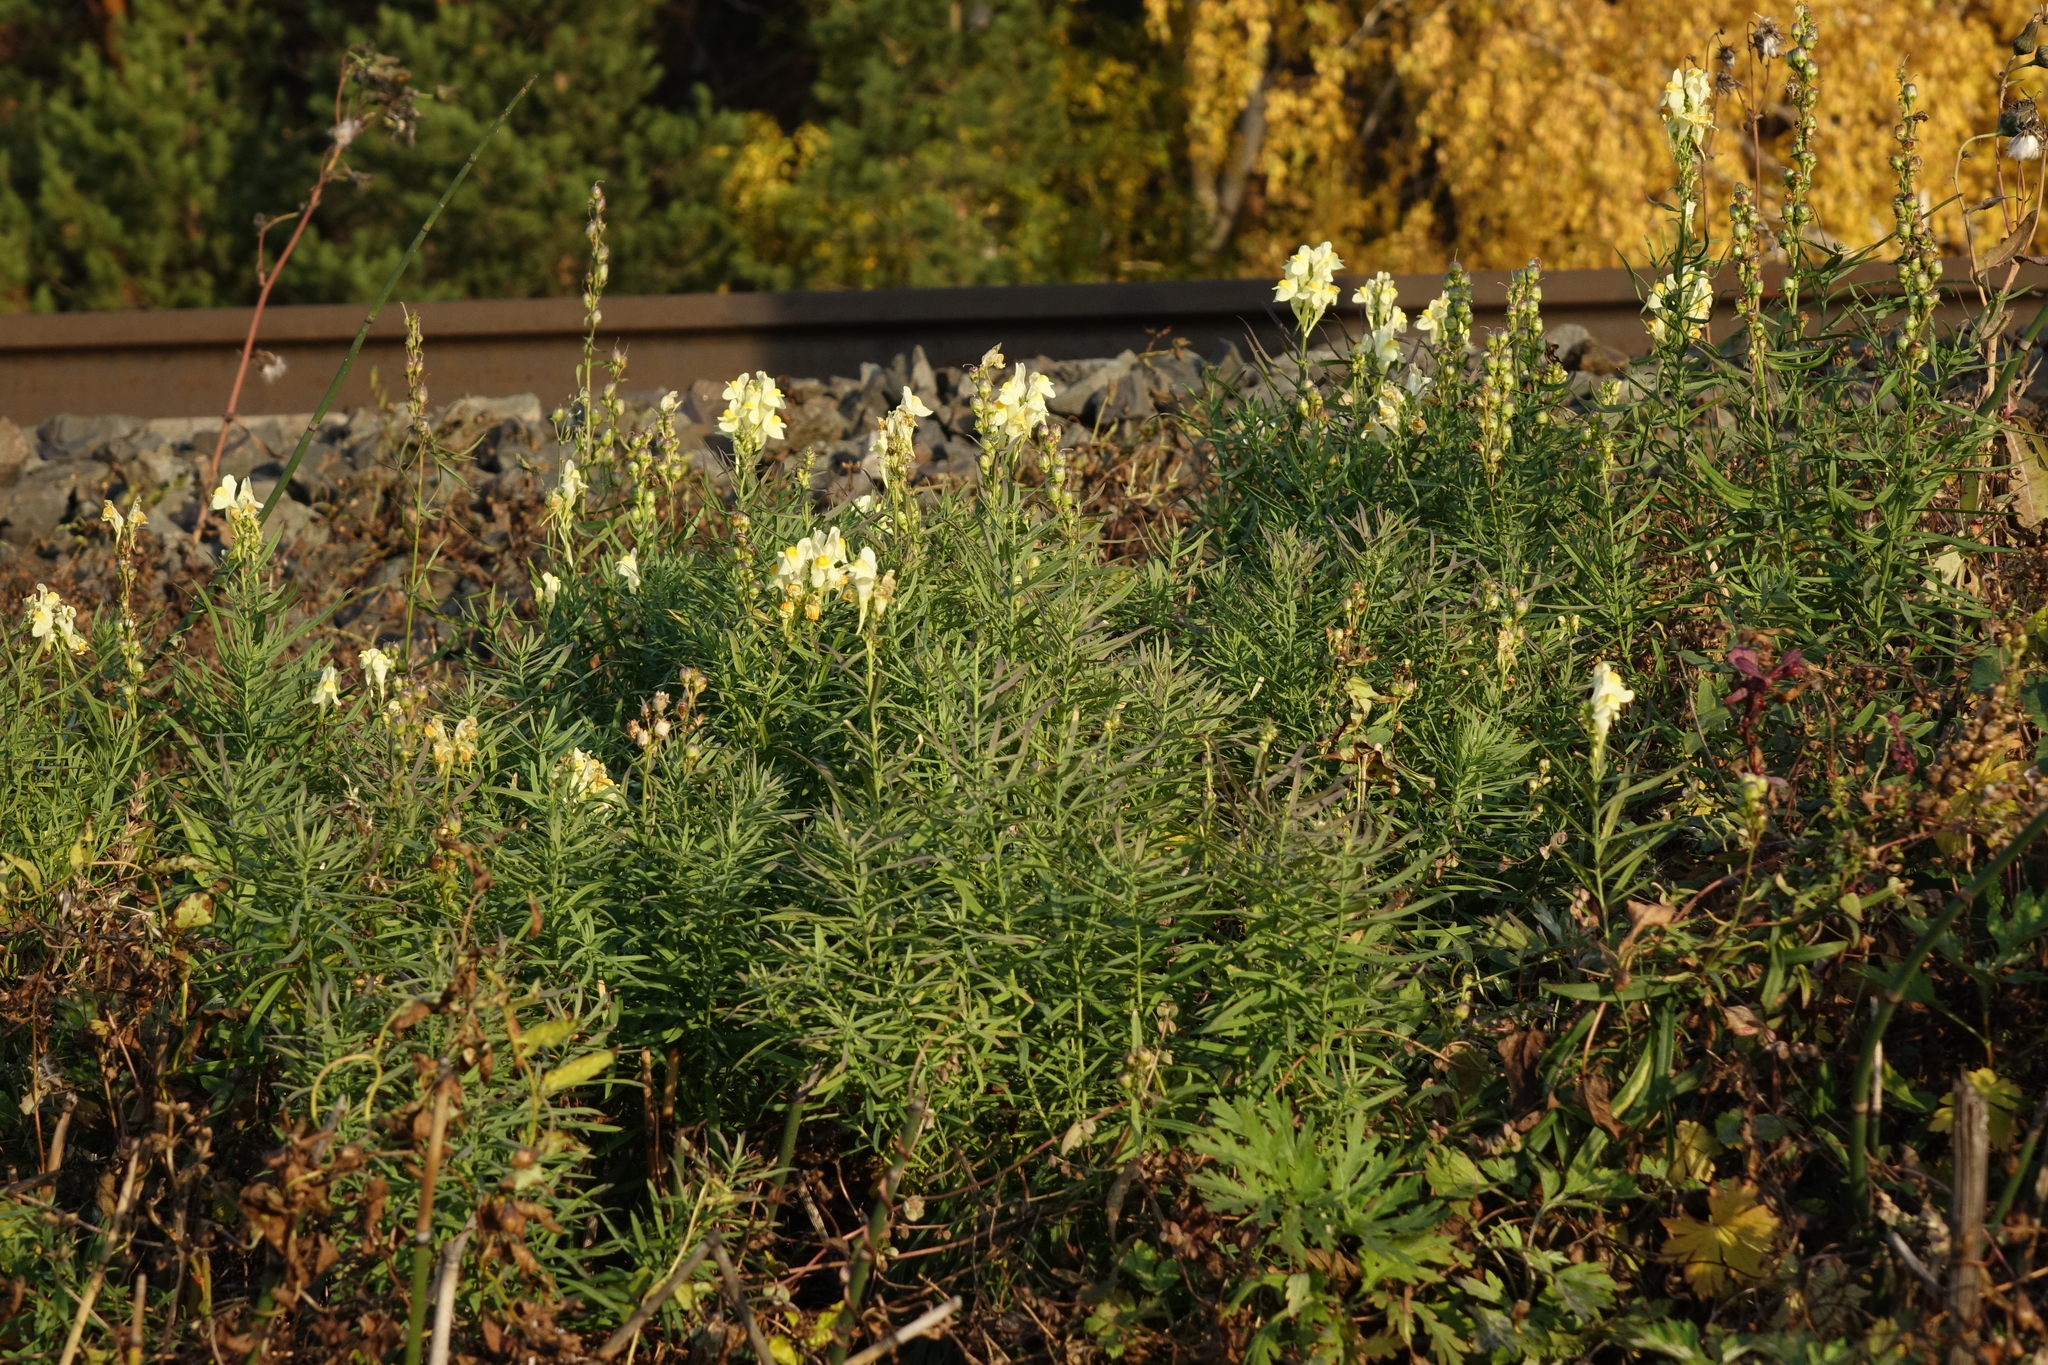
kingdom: Plantae
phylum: Tracheophyta
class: Magnoliopsida
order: Lamiales
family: Plantaginaceae
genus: Linaria
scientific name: Linaria vulgaris
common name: Butter and eggs
